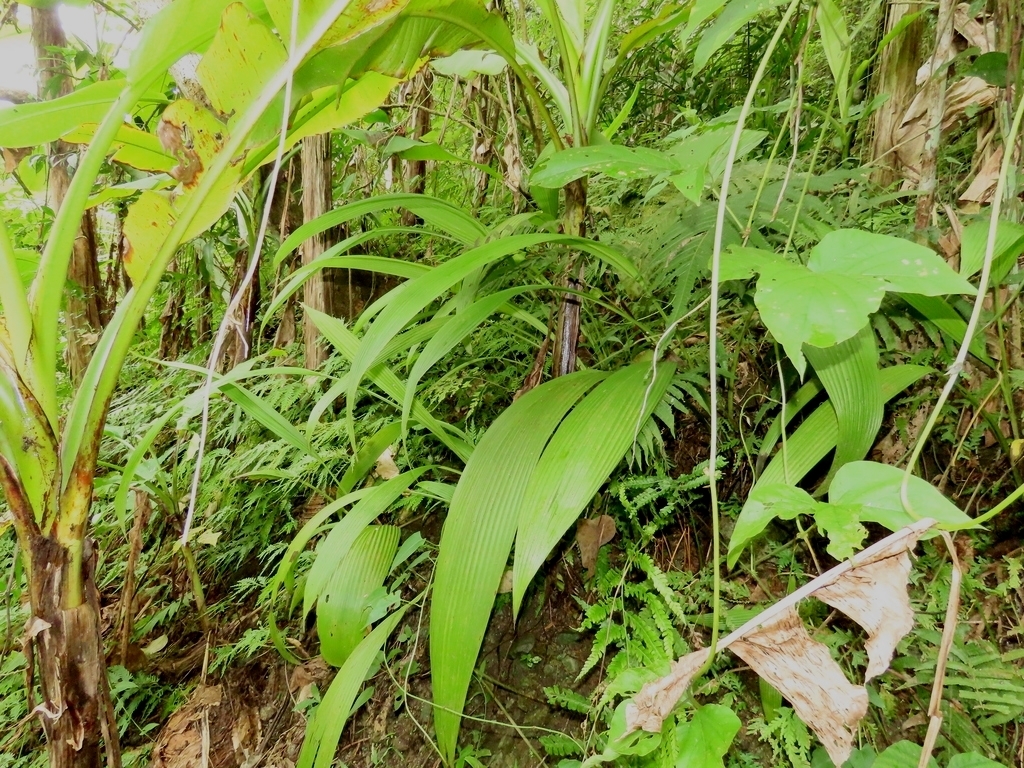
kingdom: Plantae
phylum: Tracheophyta
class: Liliopsida
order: Asparagales
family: Hypoxidaceae
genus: Curculigo
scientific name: Curculigo capitulata
